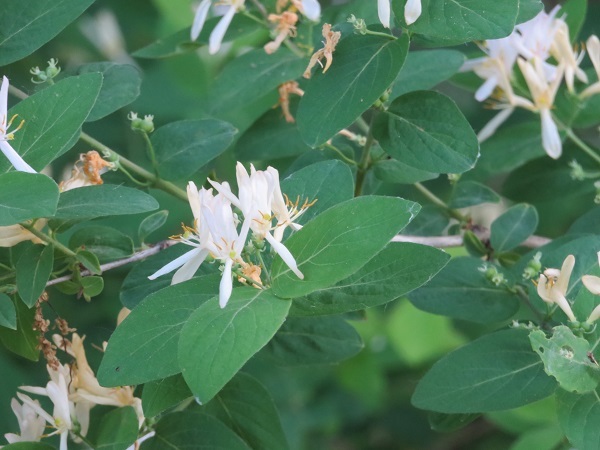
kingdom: Plantae
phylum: Tracheophyta
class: Magnoliopsida
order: Dipsacales
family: Caprifoliaceae
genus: Lonicera
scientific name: Lonicera morrowii
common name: Morrow's honeysuckle
